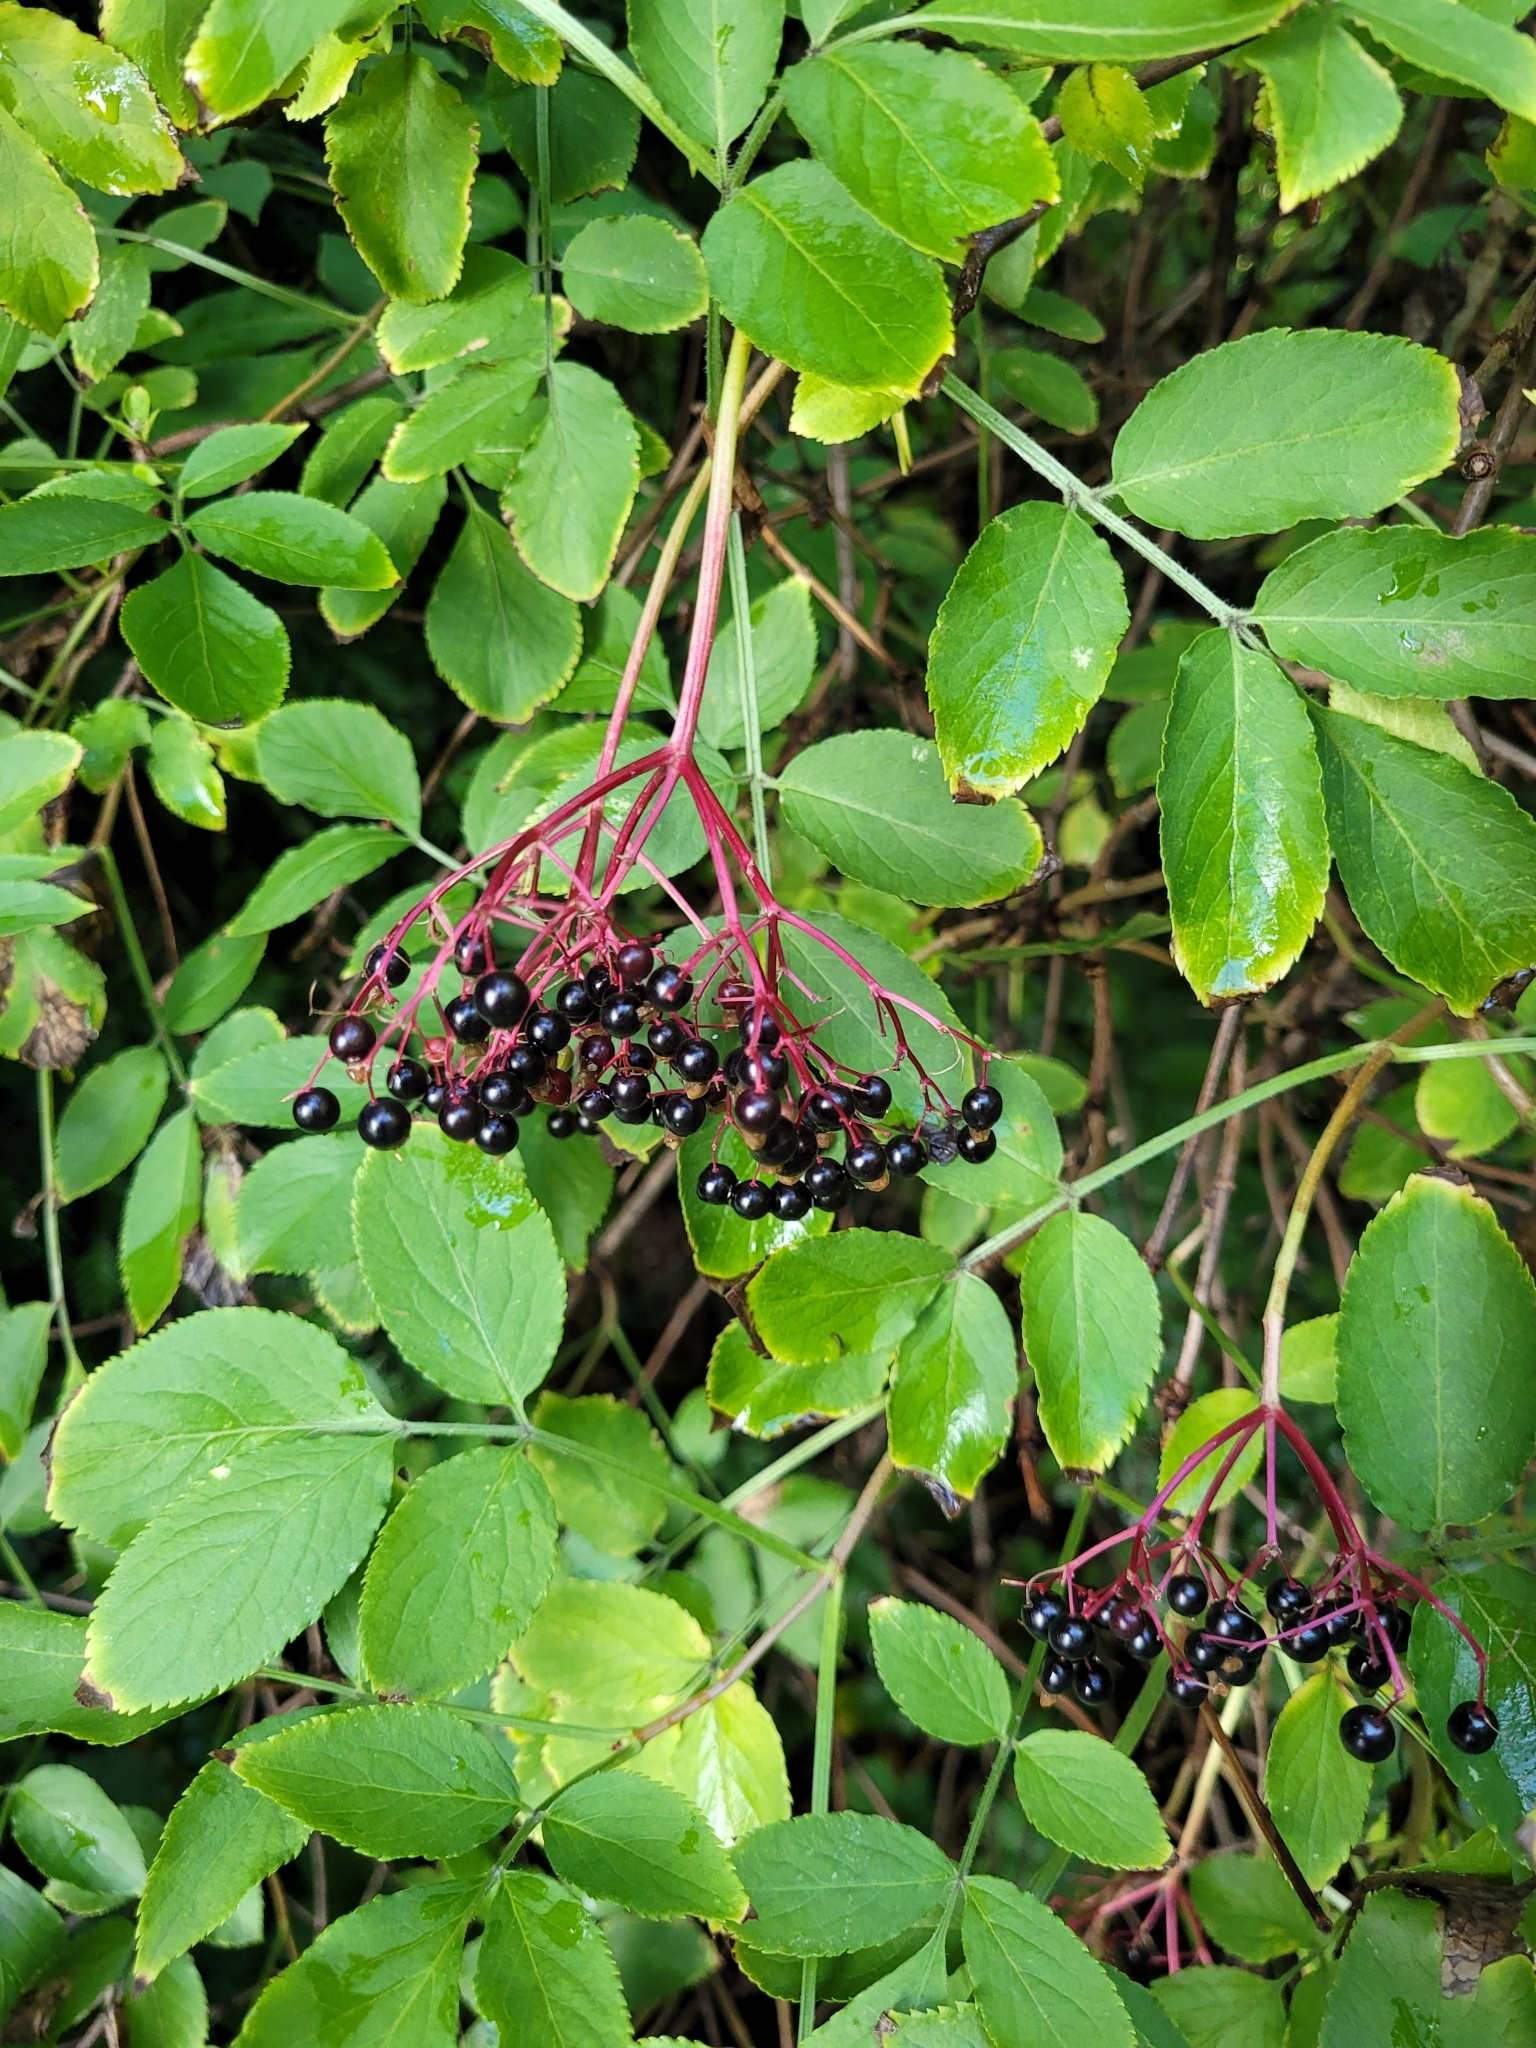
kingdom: Plantae
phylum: Tracheophyta
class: Magnoliopsida
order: Dipsacales
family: Viburnaceae
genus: Sambucus
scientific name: Sambucus nigra
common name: Elder
